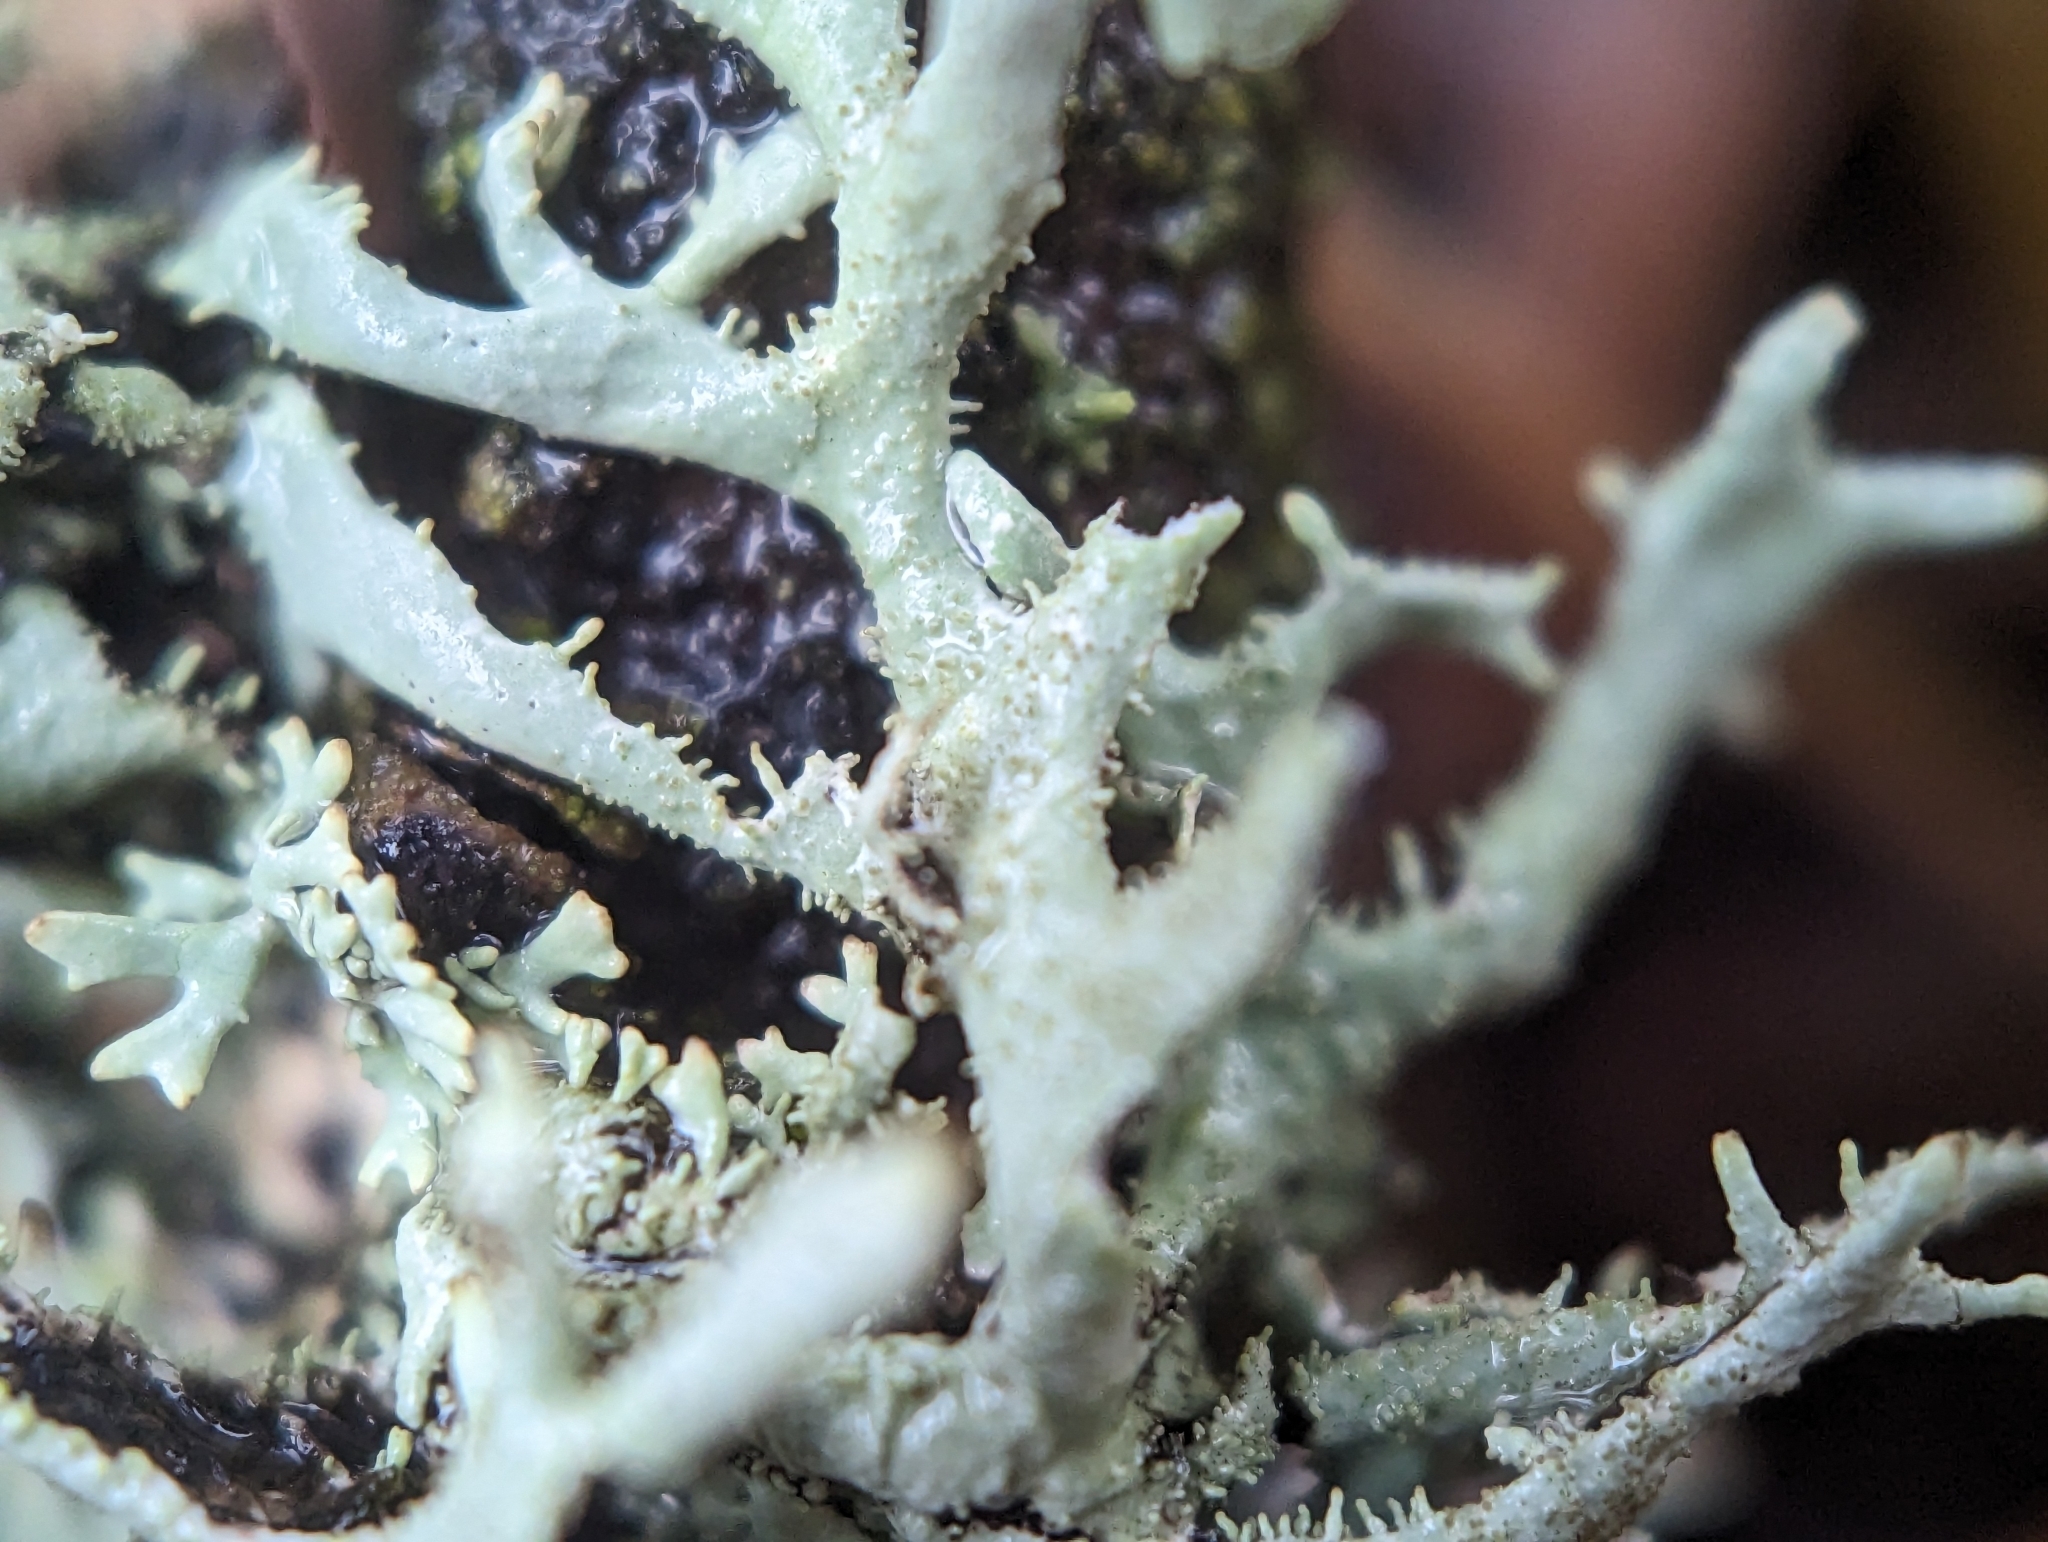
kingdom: Fungi
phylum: Ascomycota
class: Lecanoromycetes
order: Lecanorales
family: Parmeliaceae
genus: Pseudevernia
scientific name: Pseudevernia furfuracea
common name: Tree moss
